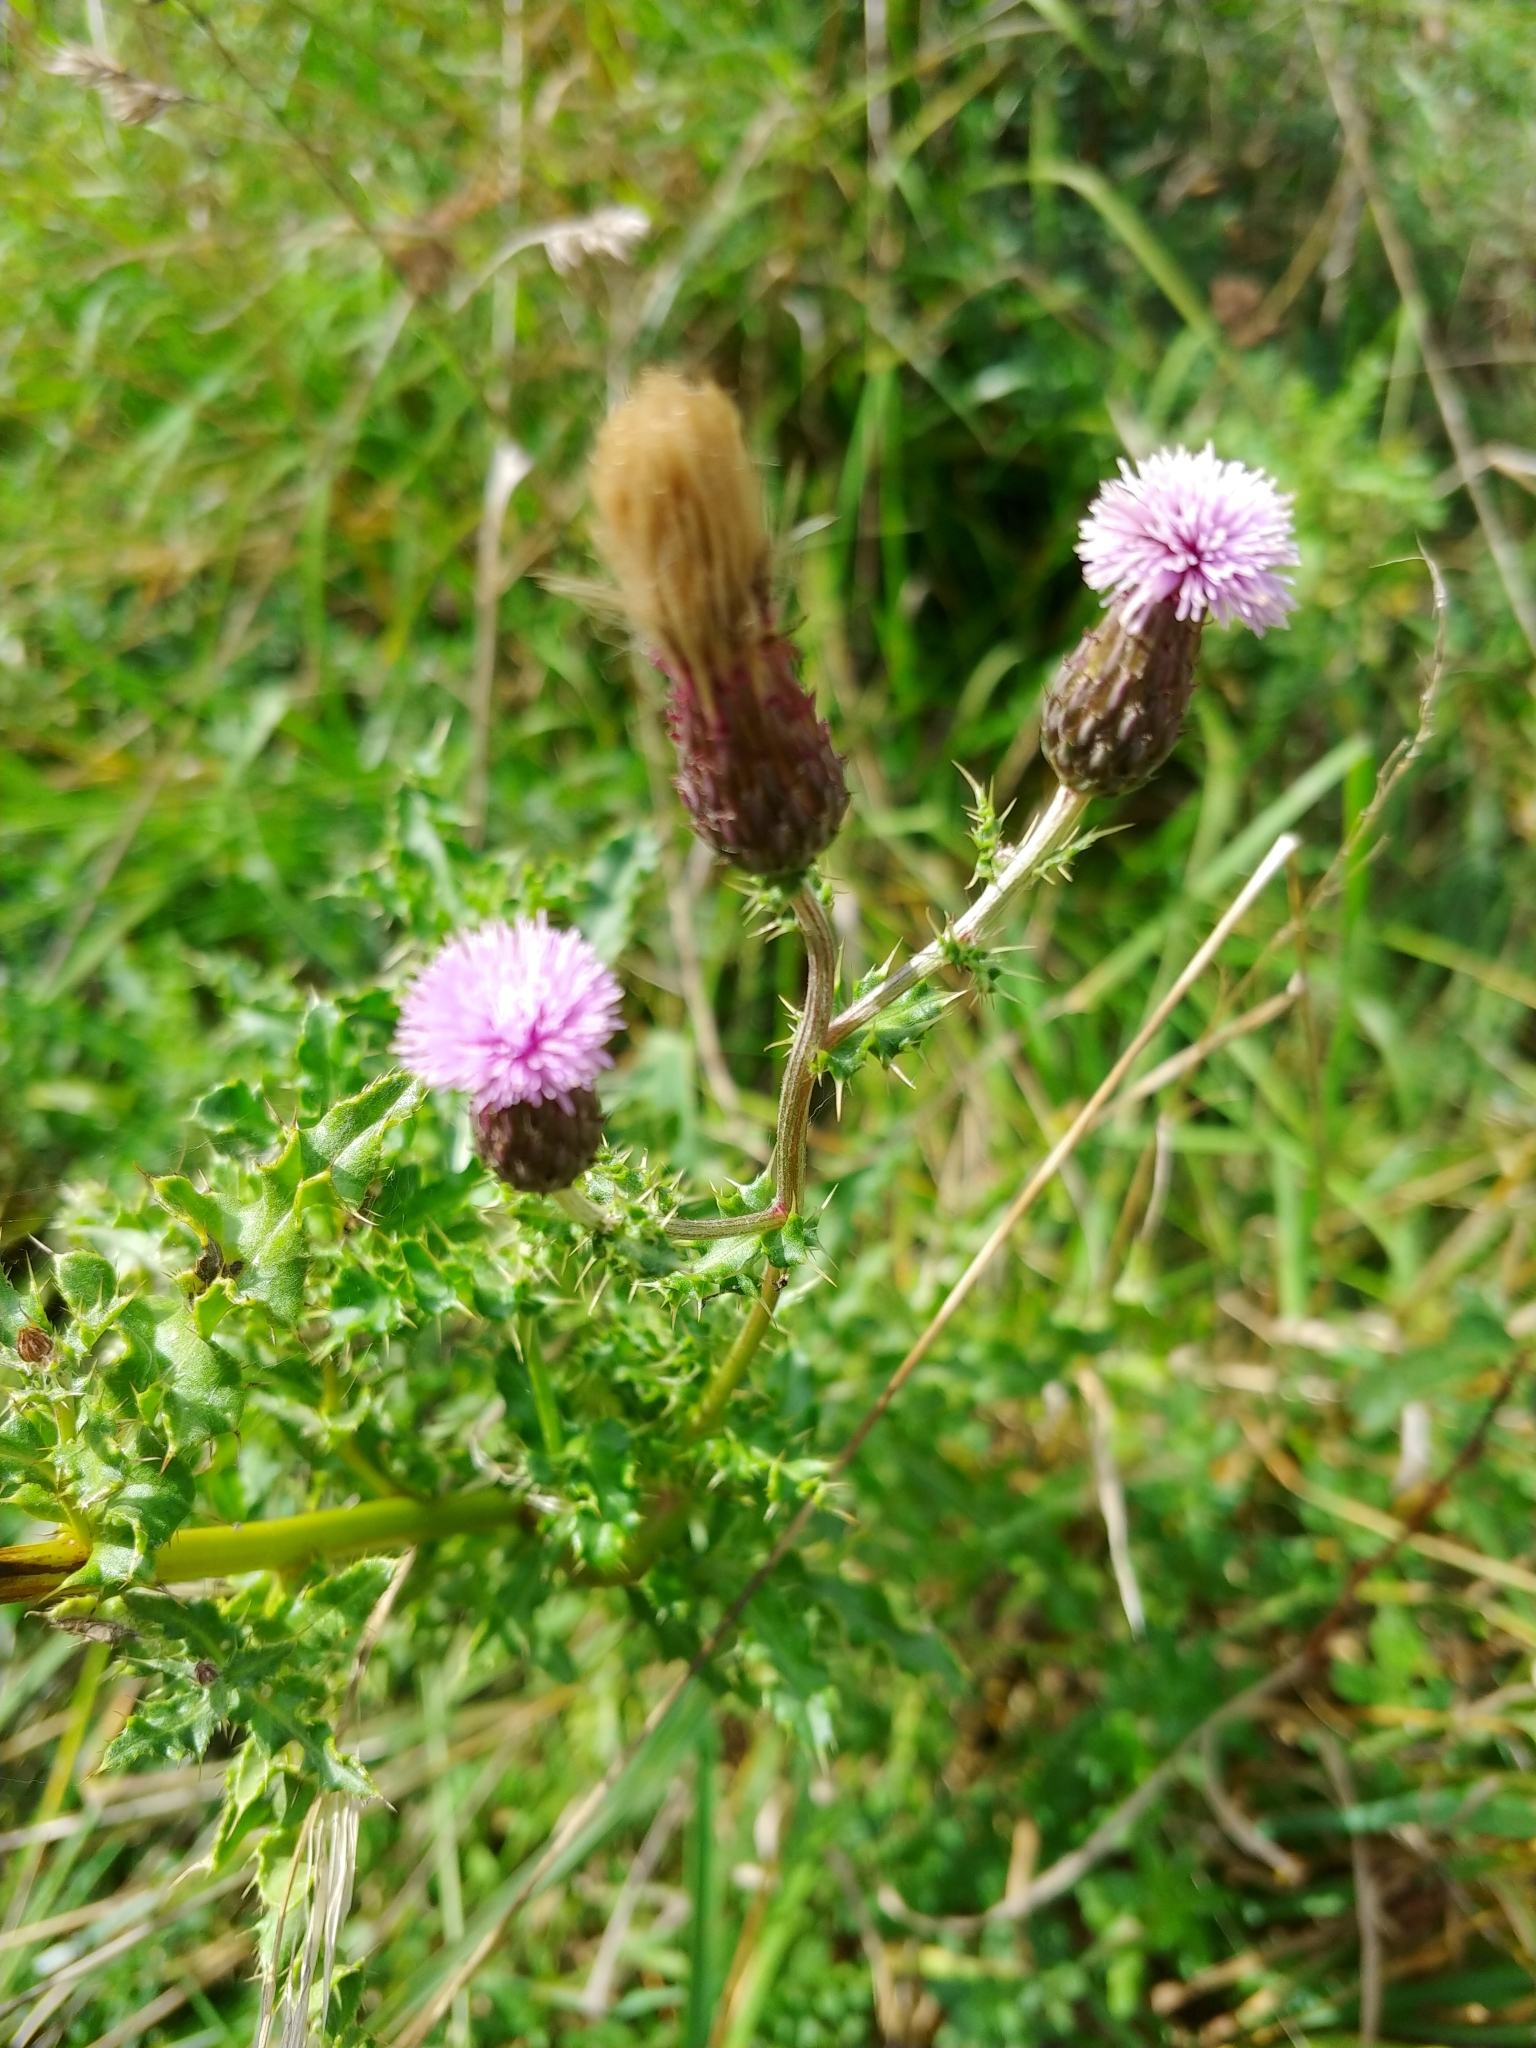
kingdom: Plantae
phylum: Tracheophyta
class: Magnoliopsida
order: Asterales
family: Asteraceae
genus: Cirsium
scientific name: Cirsium arvense
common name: Creeping thistle
